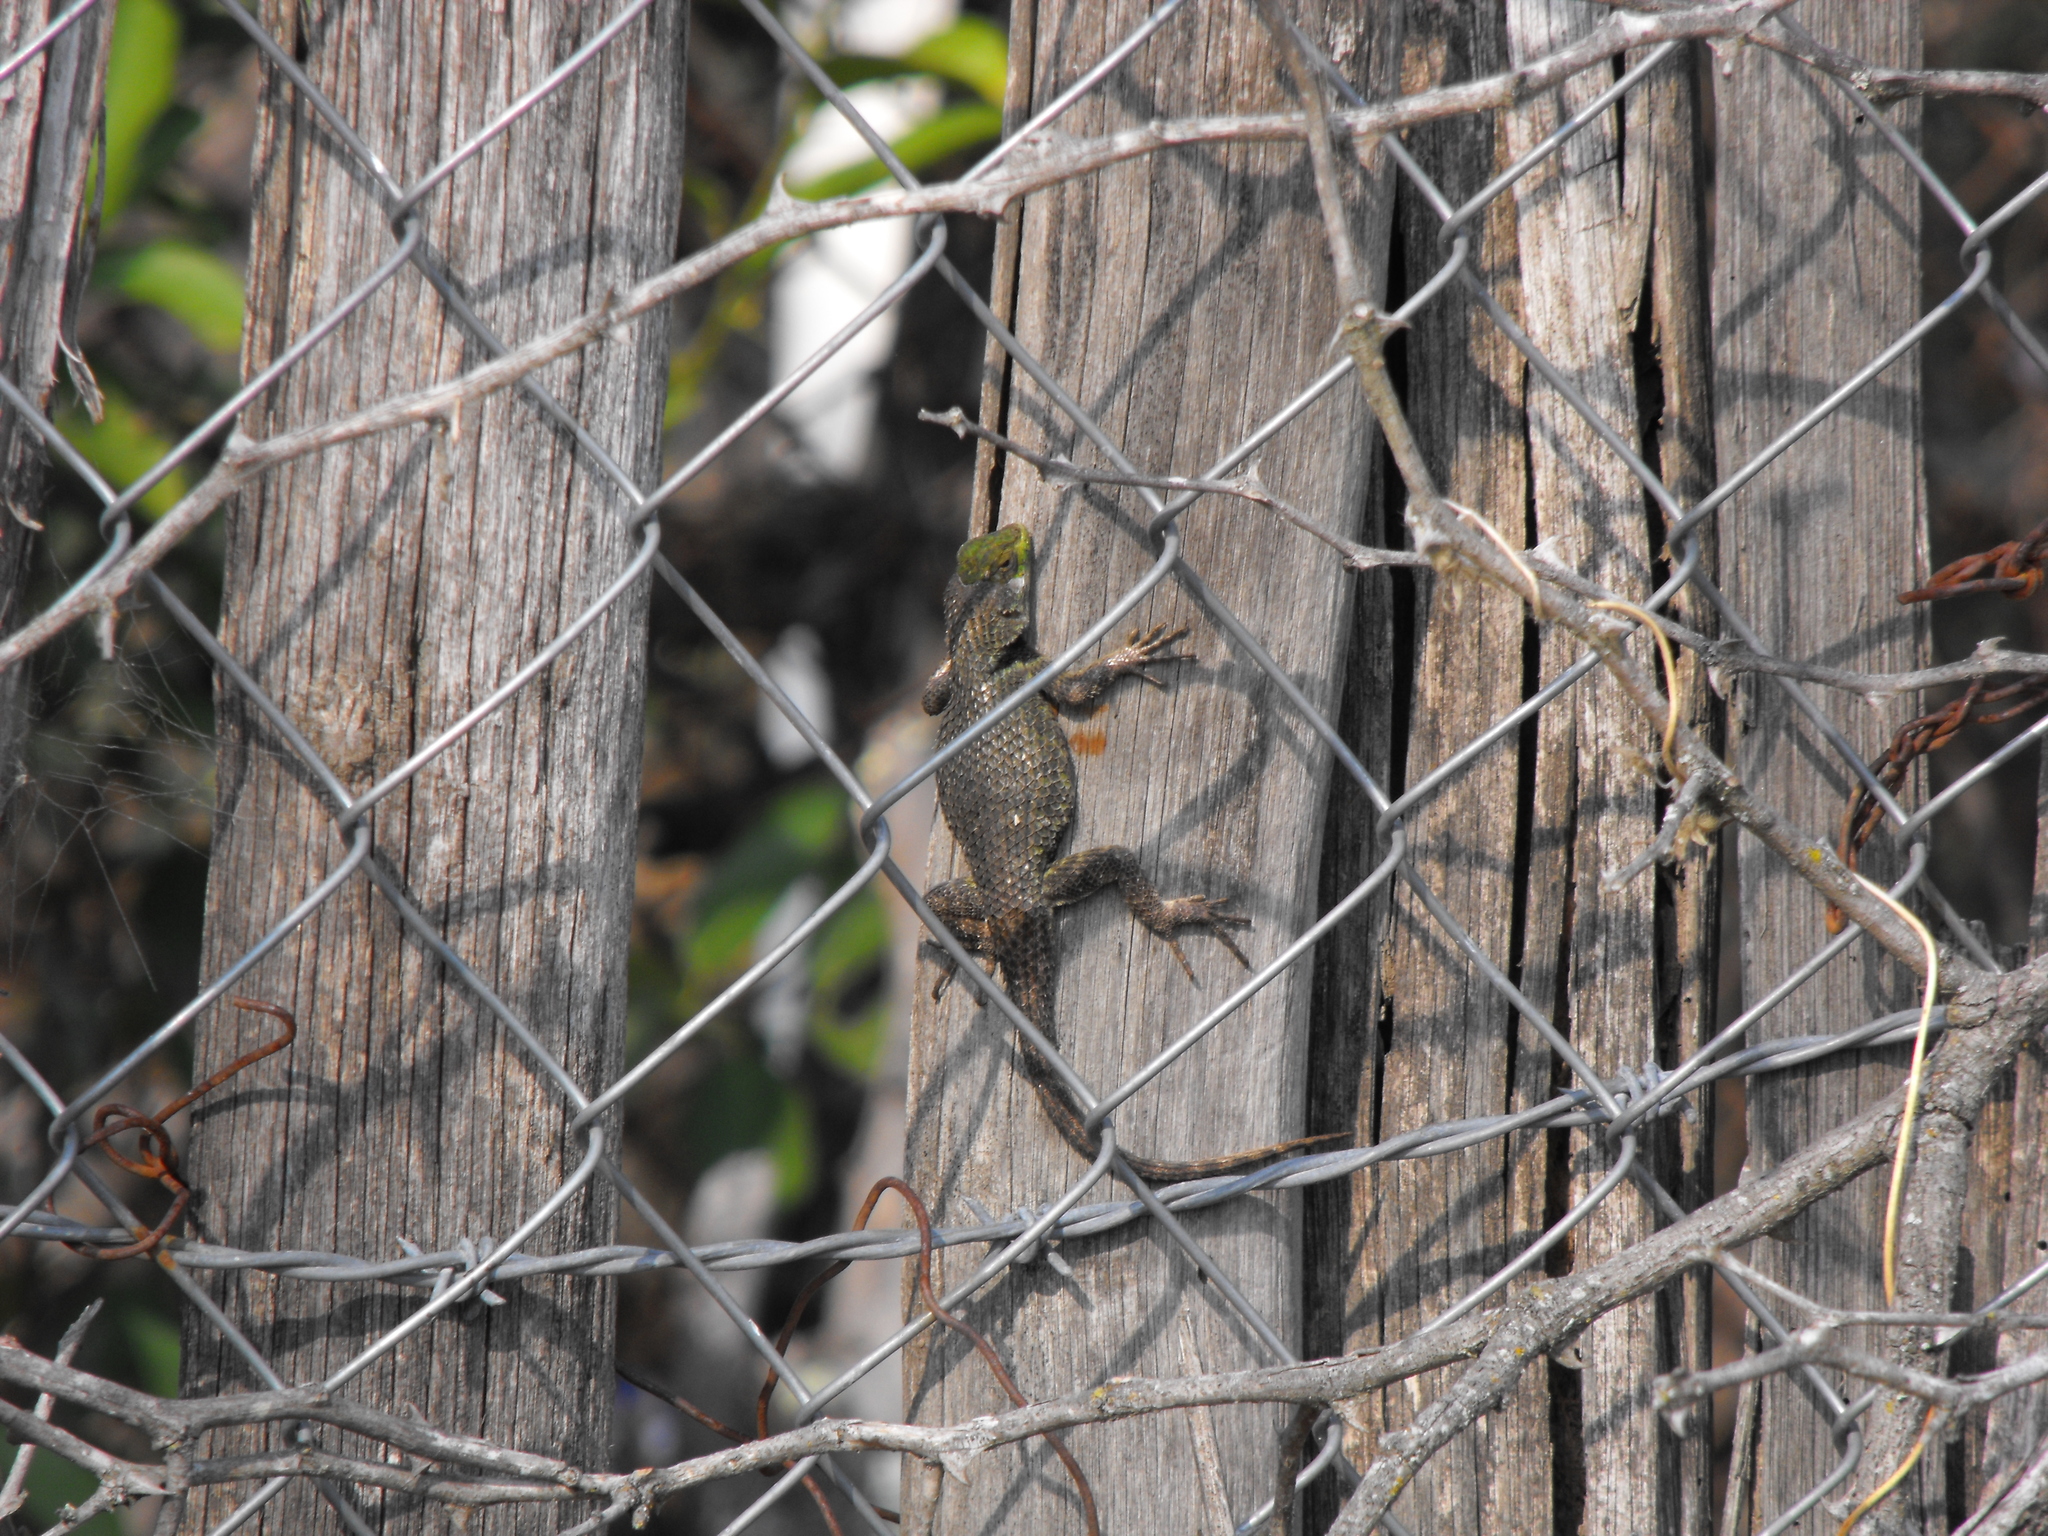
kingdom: Animalia
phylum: Chordata
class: Squamata
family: Phrynosomatidae
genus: Sceloporus
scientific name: Sceloporus formosus
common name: Mexican emerald spiny lizard
